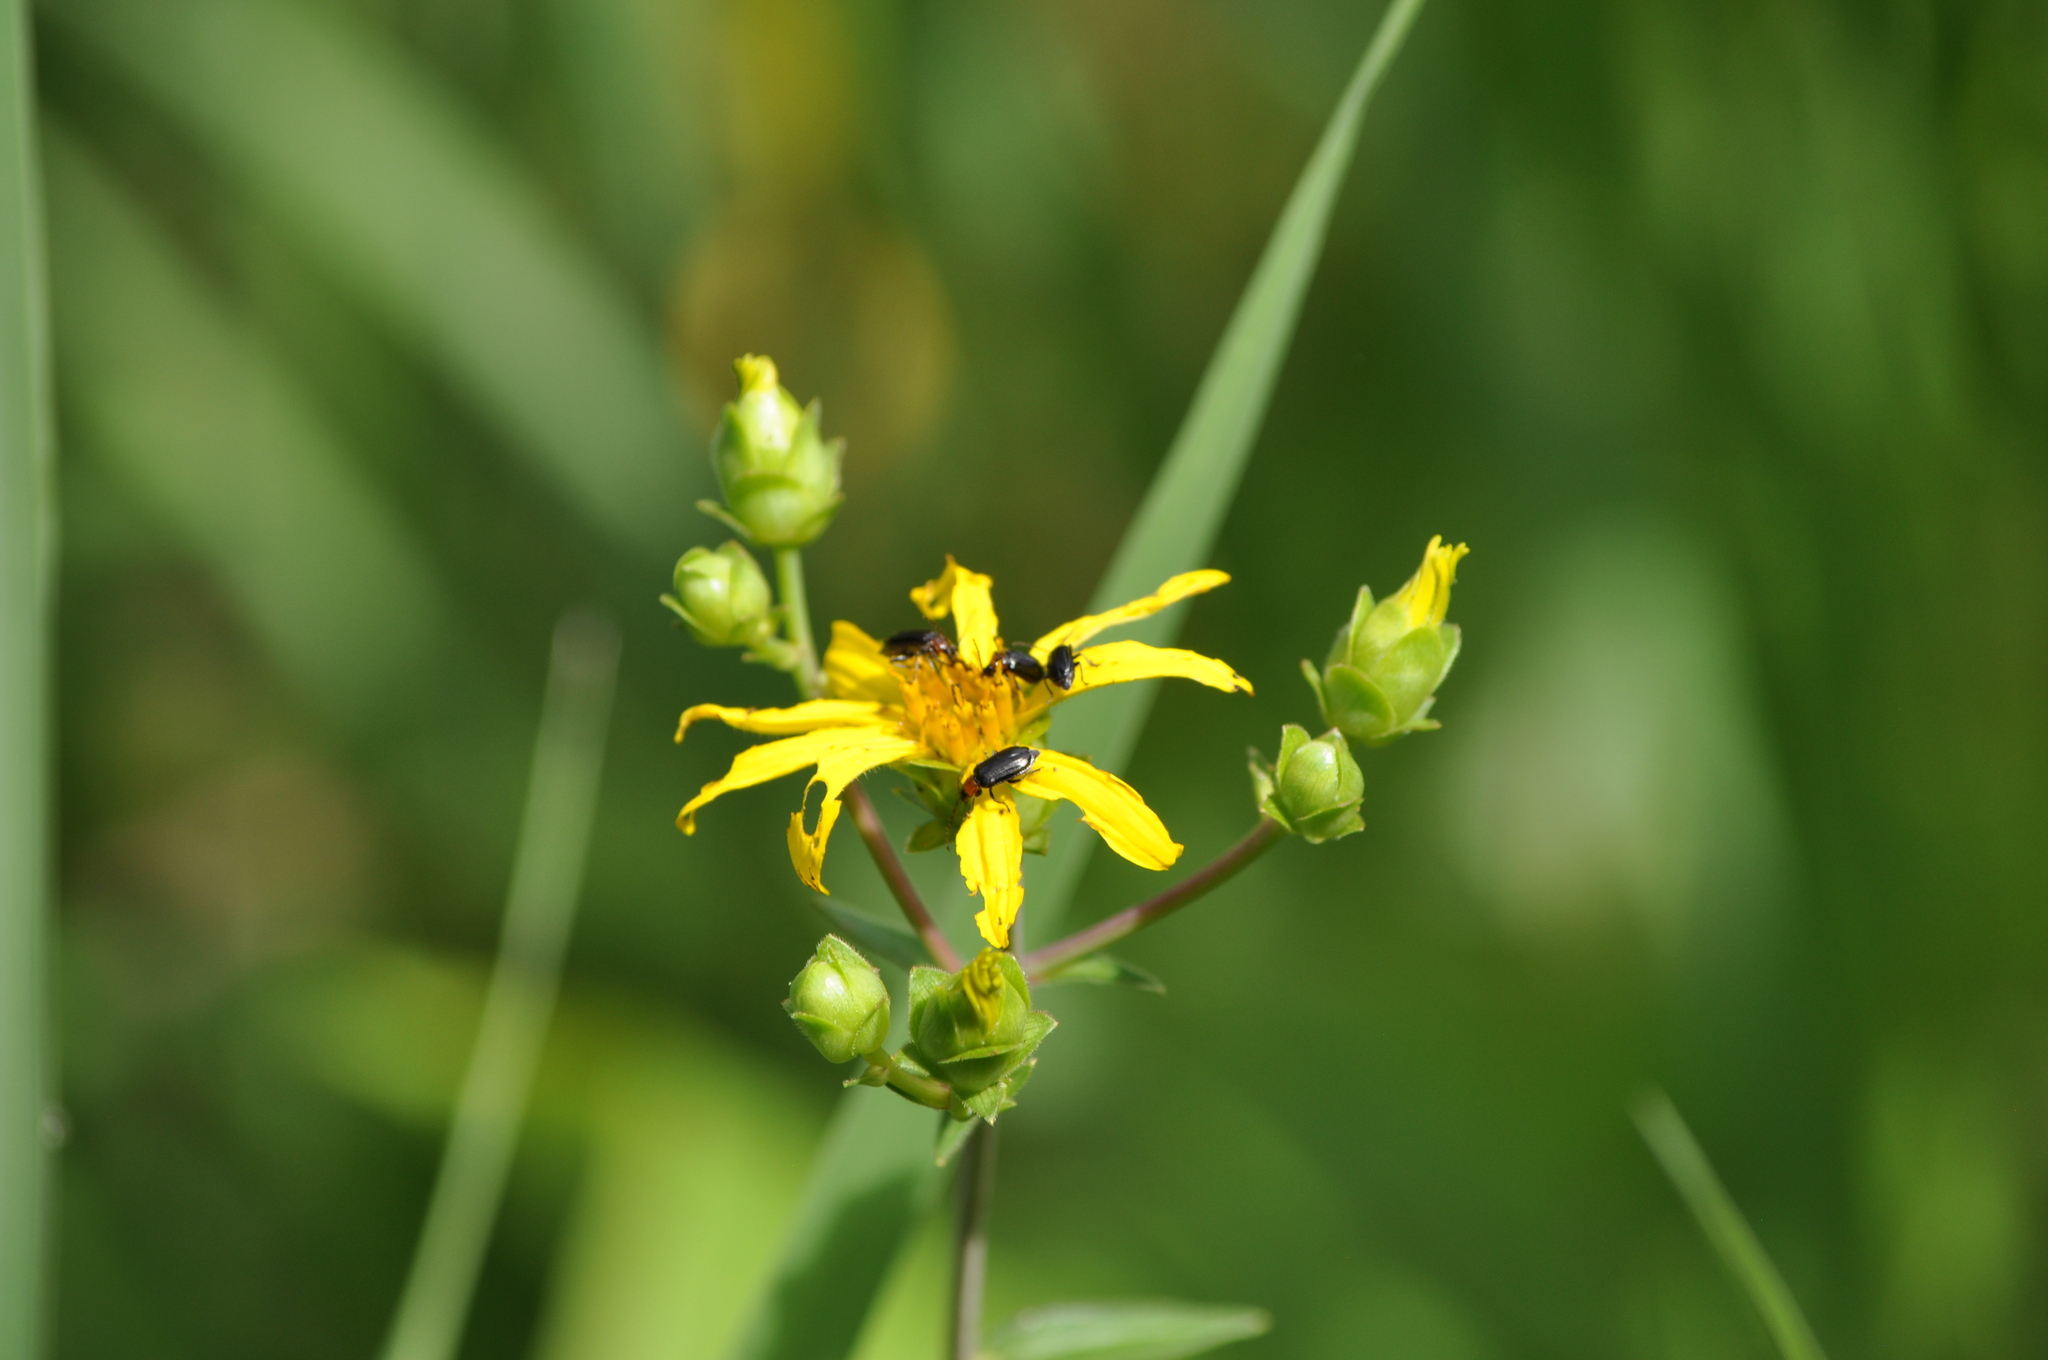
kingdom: Plantae
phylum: Tracheophyta
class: Magnoliopsida
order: Asterales
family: Asteraceae
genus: Silphium
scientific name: Silphium asteriscus
